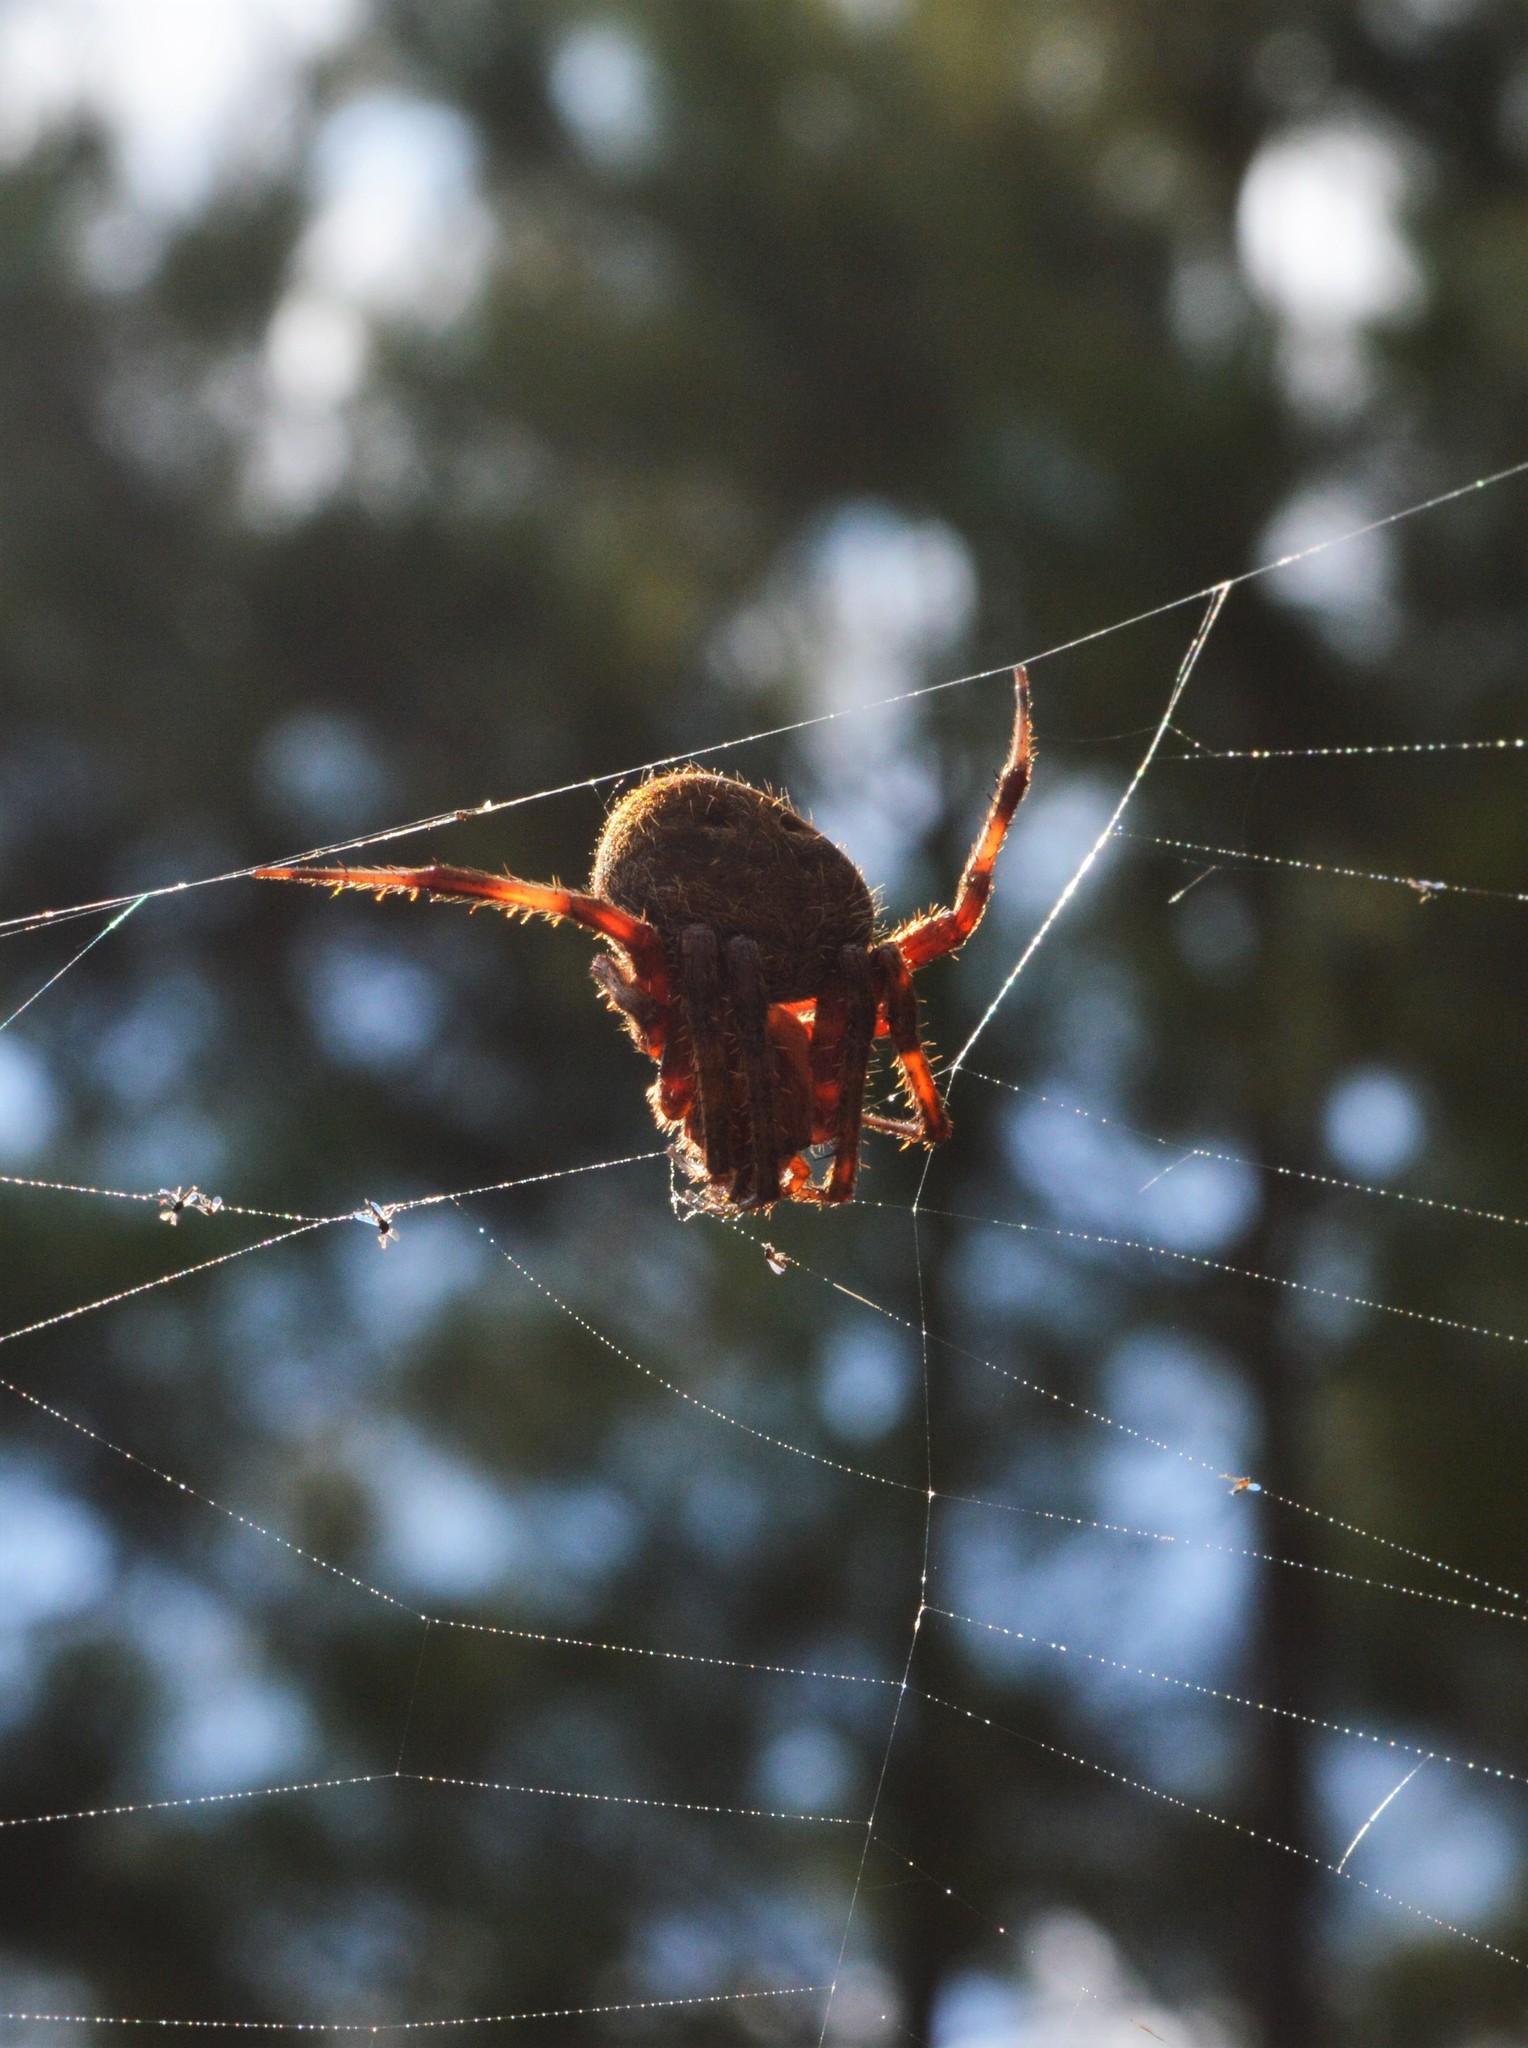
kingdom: Animalia
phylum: Arthropoda
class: Arachnida
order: Araneae
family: Araneidae
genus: Neoscona
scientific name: Neoscona crucifera
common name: Spotted orbweaver
